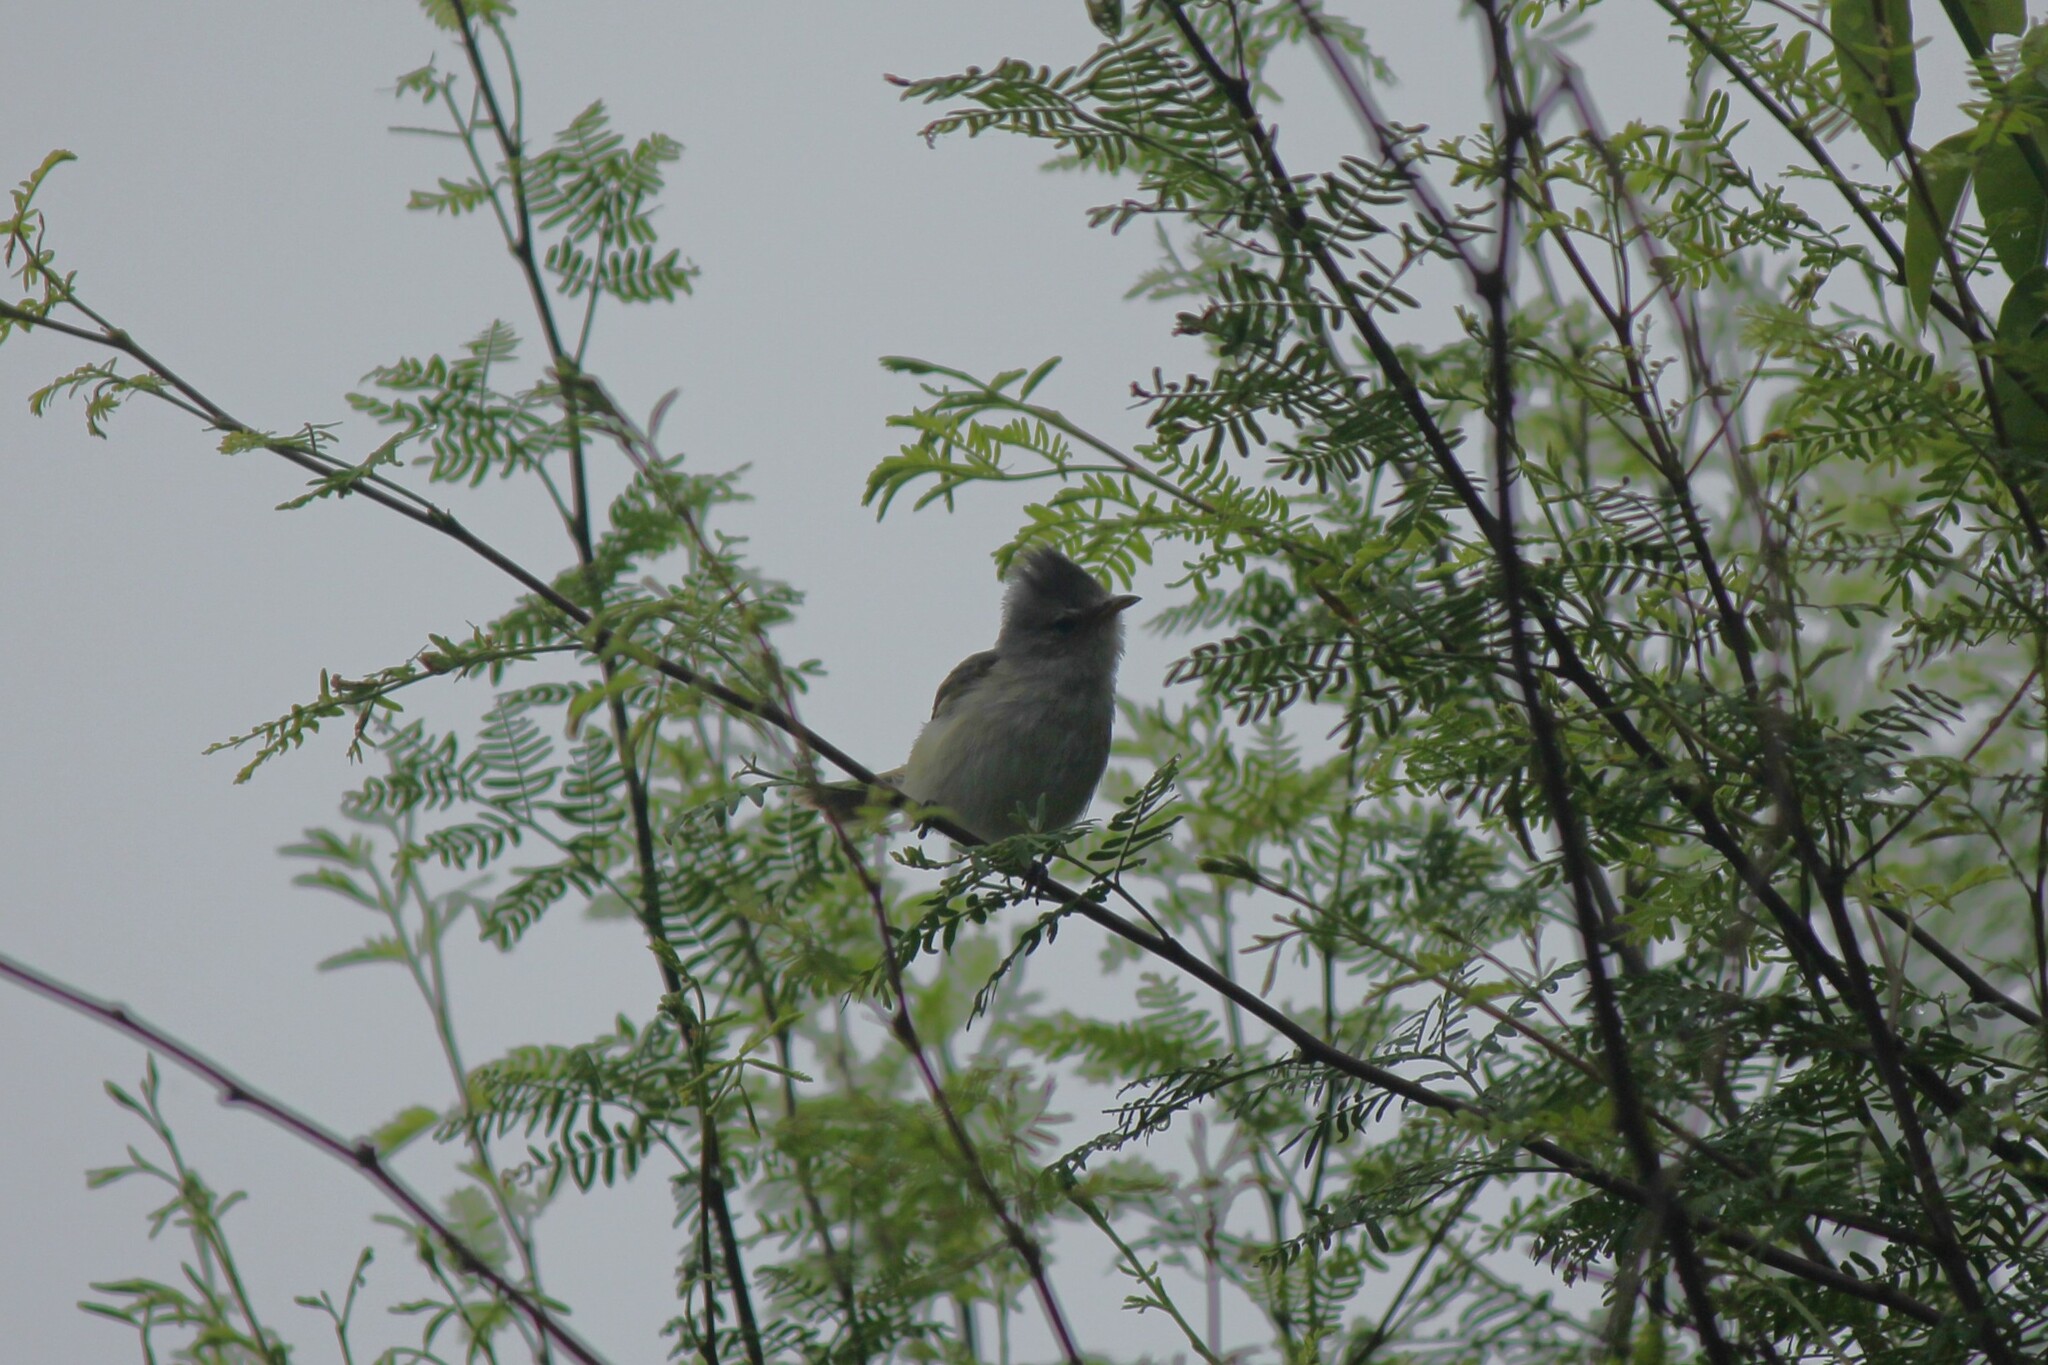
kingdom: Animalia
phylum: Chordata
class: Aves
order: Passeriformes
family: Tyrannidae
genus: Camptostoma
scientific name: Camptostoma obsoletum
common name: Southern beardless-tyrannulet
